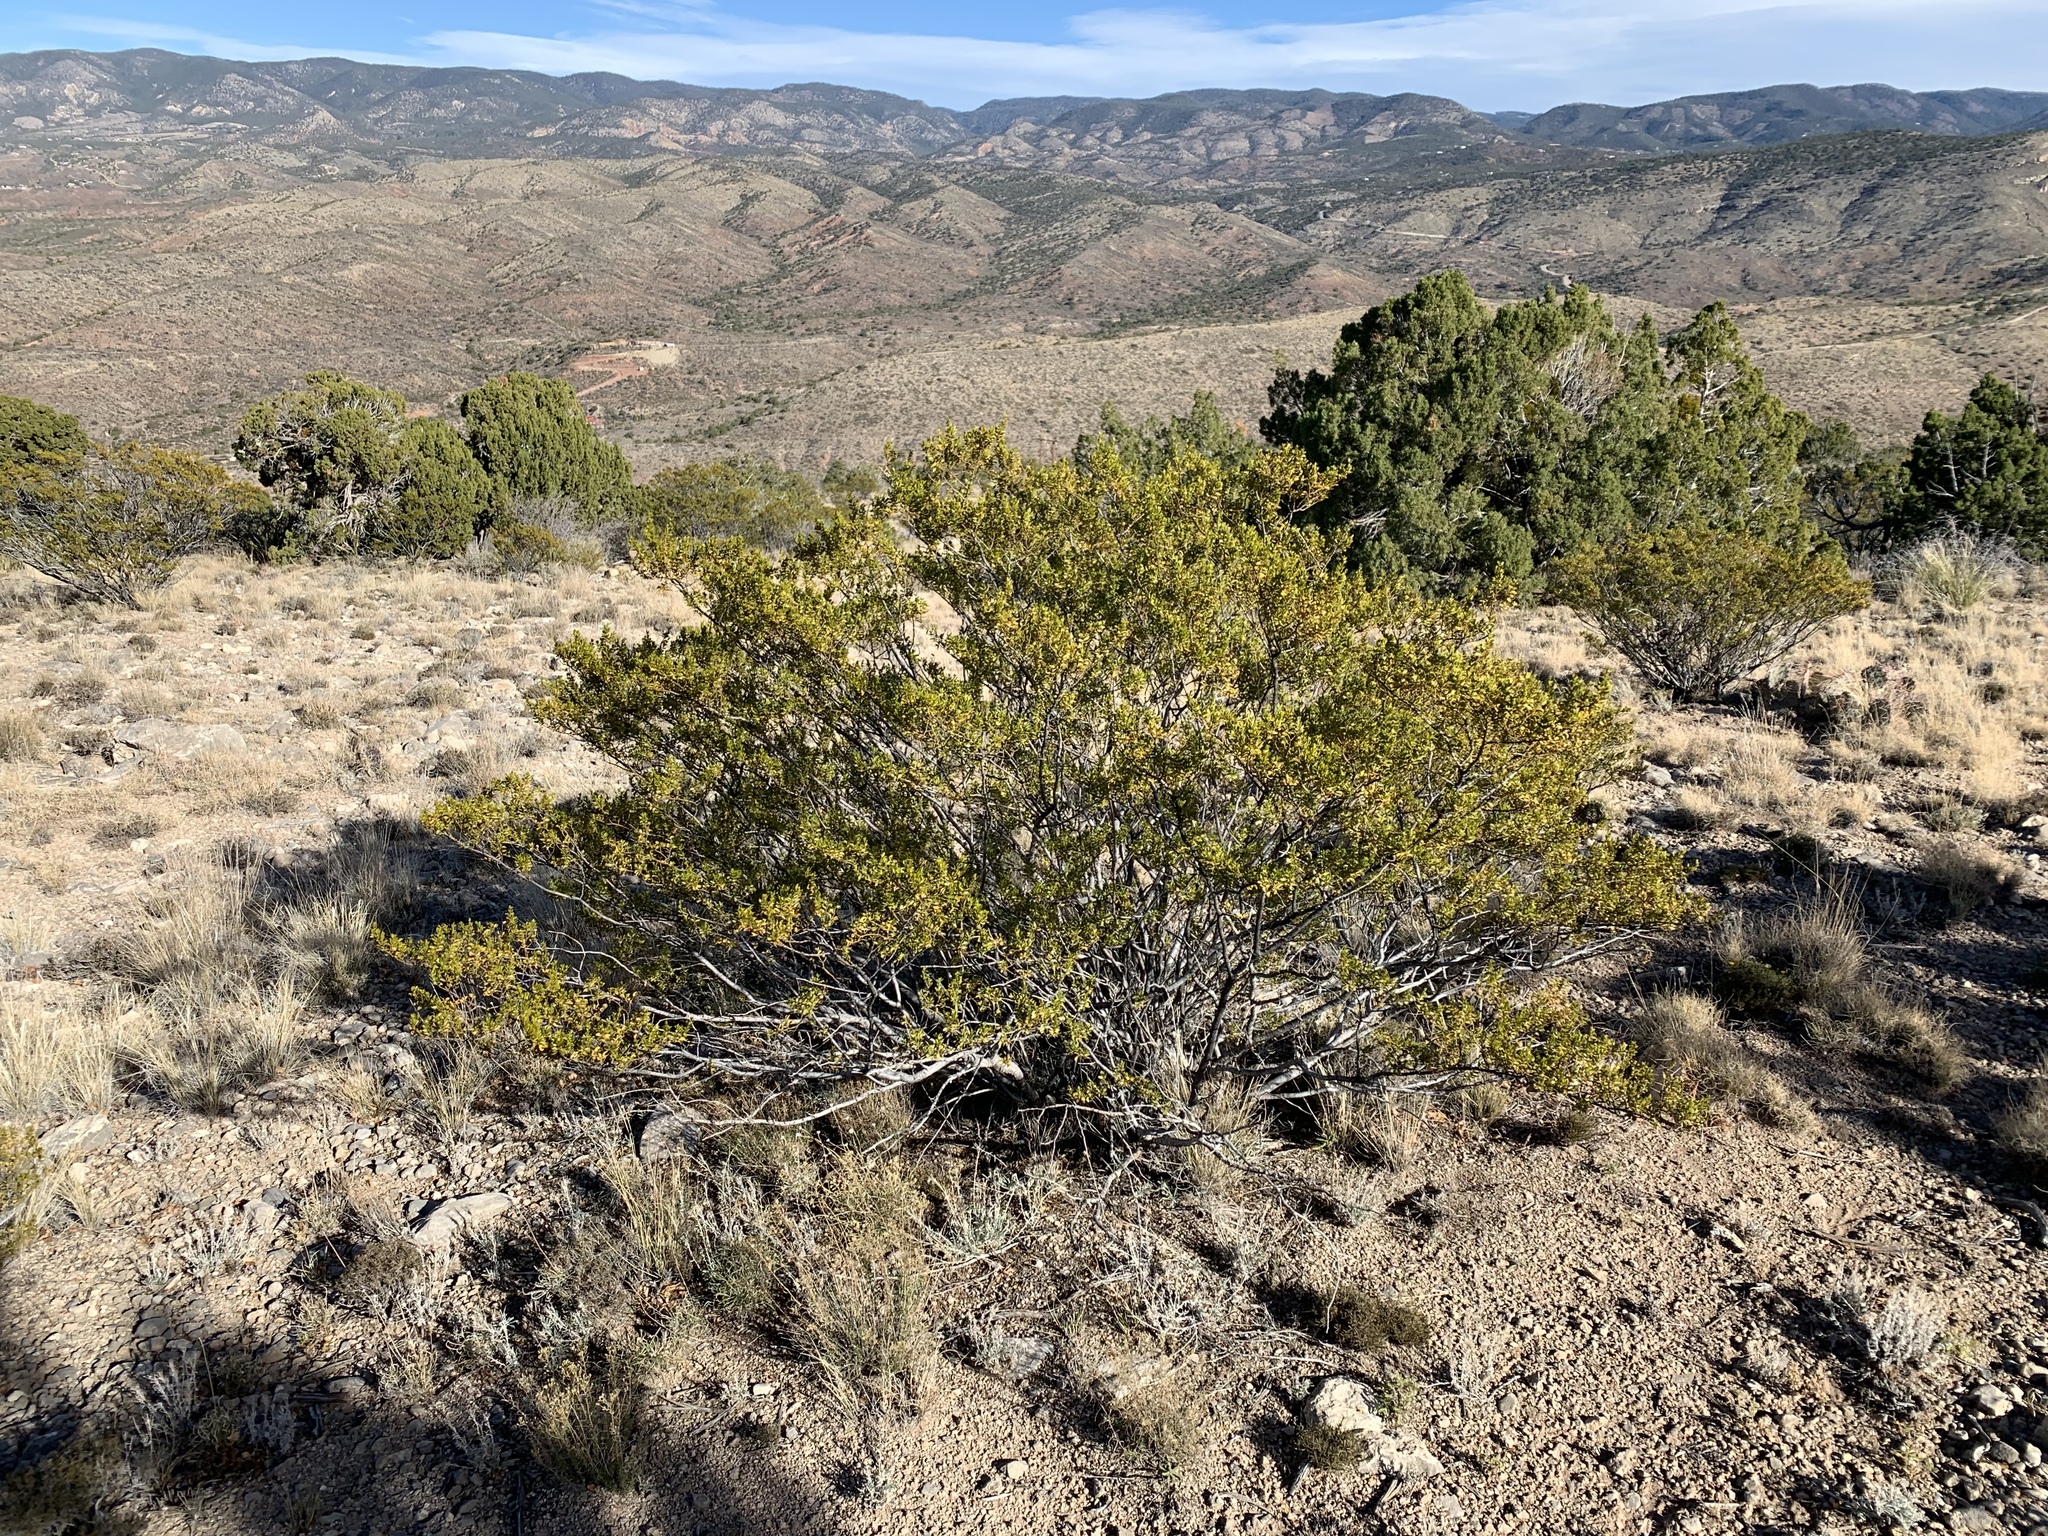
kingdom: Plantae
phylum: Tracheophyta
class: Magnoliopsida
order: Zygophyllales
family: Zygophyllaceae
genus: Larrea
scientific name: Larrea tridentata
